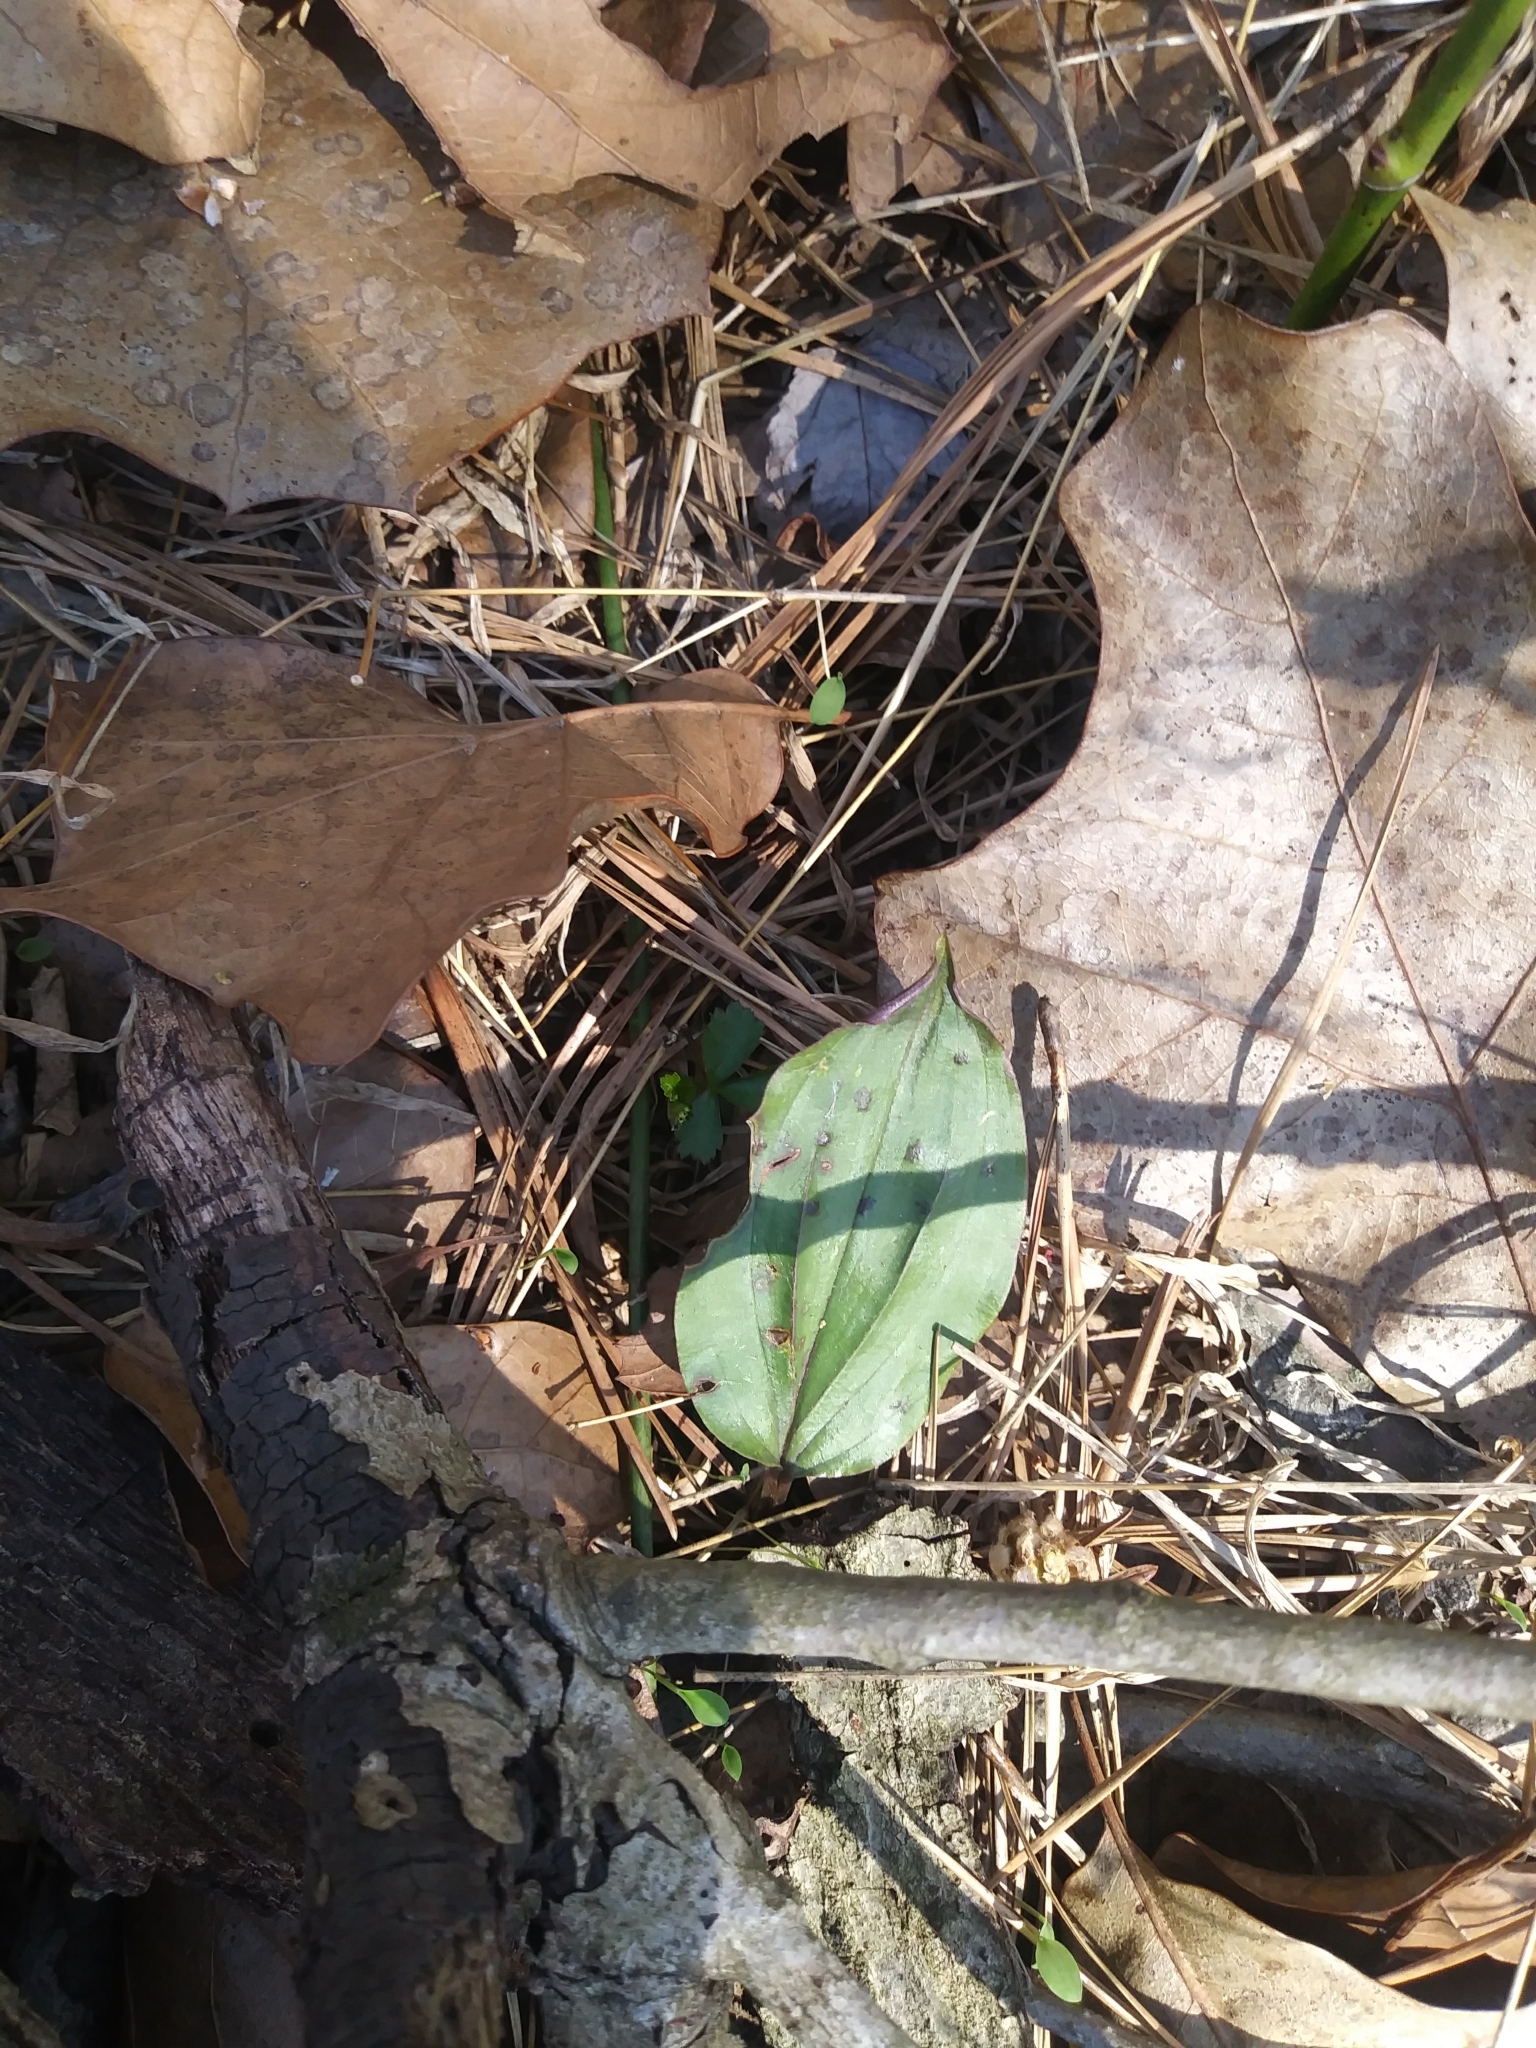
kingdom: Plantae
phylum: Tracheophyta
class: Liliopsida
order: Asparagales
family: Orchidaceae
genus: Tipularia
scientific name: Tipularia discolor
